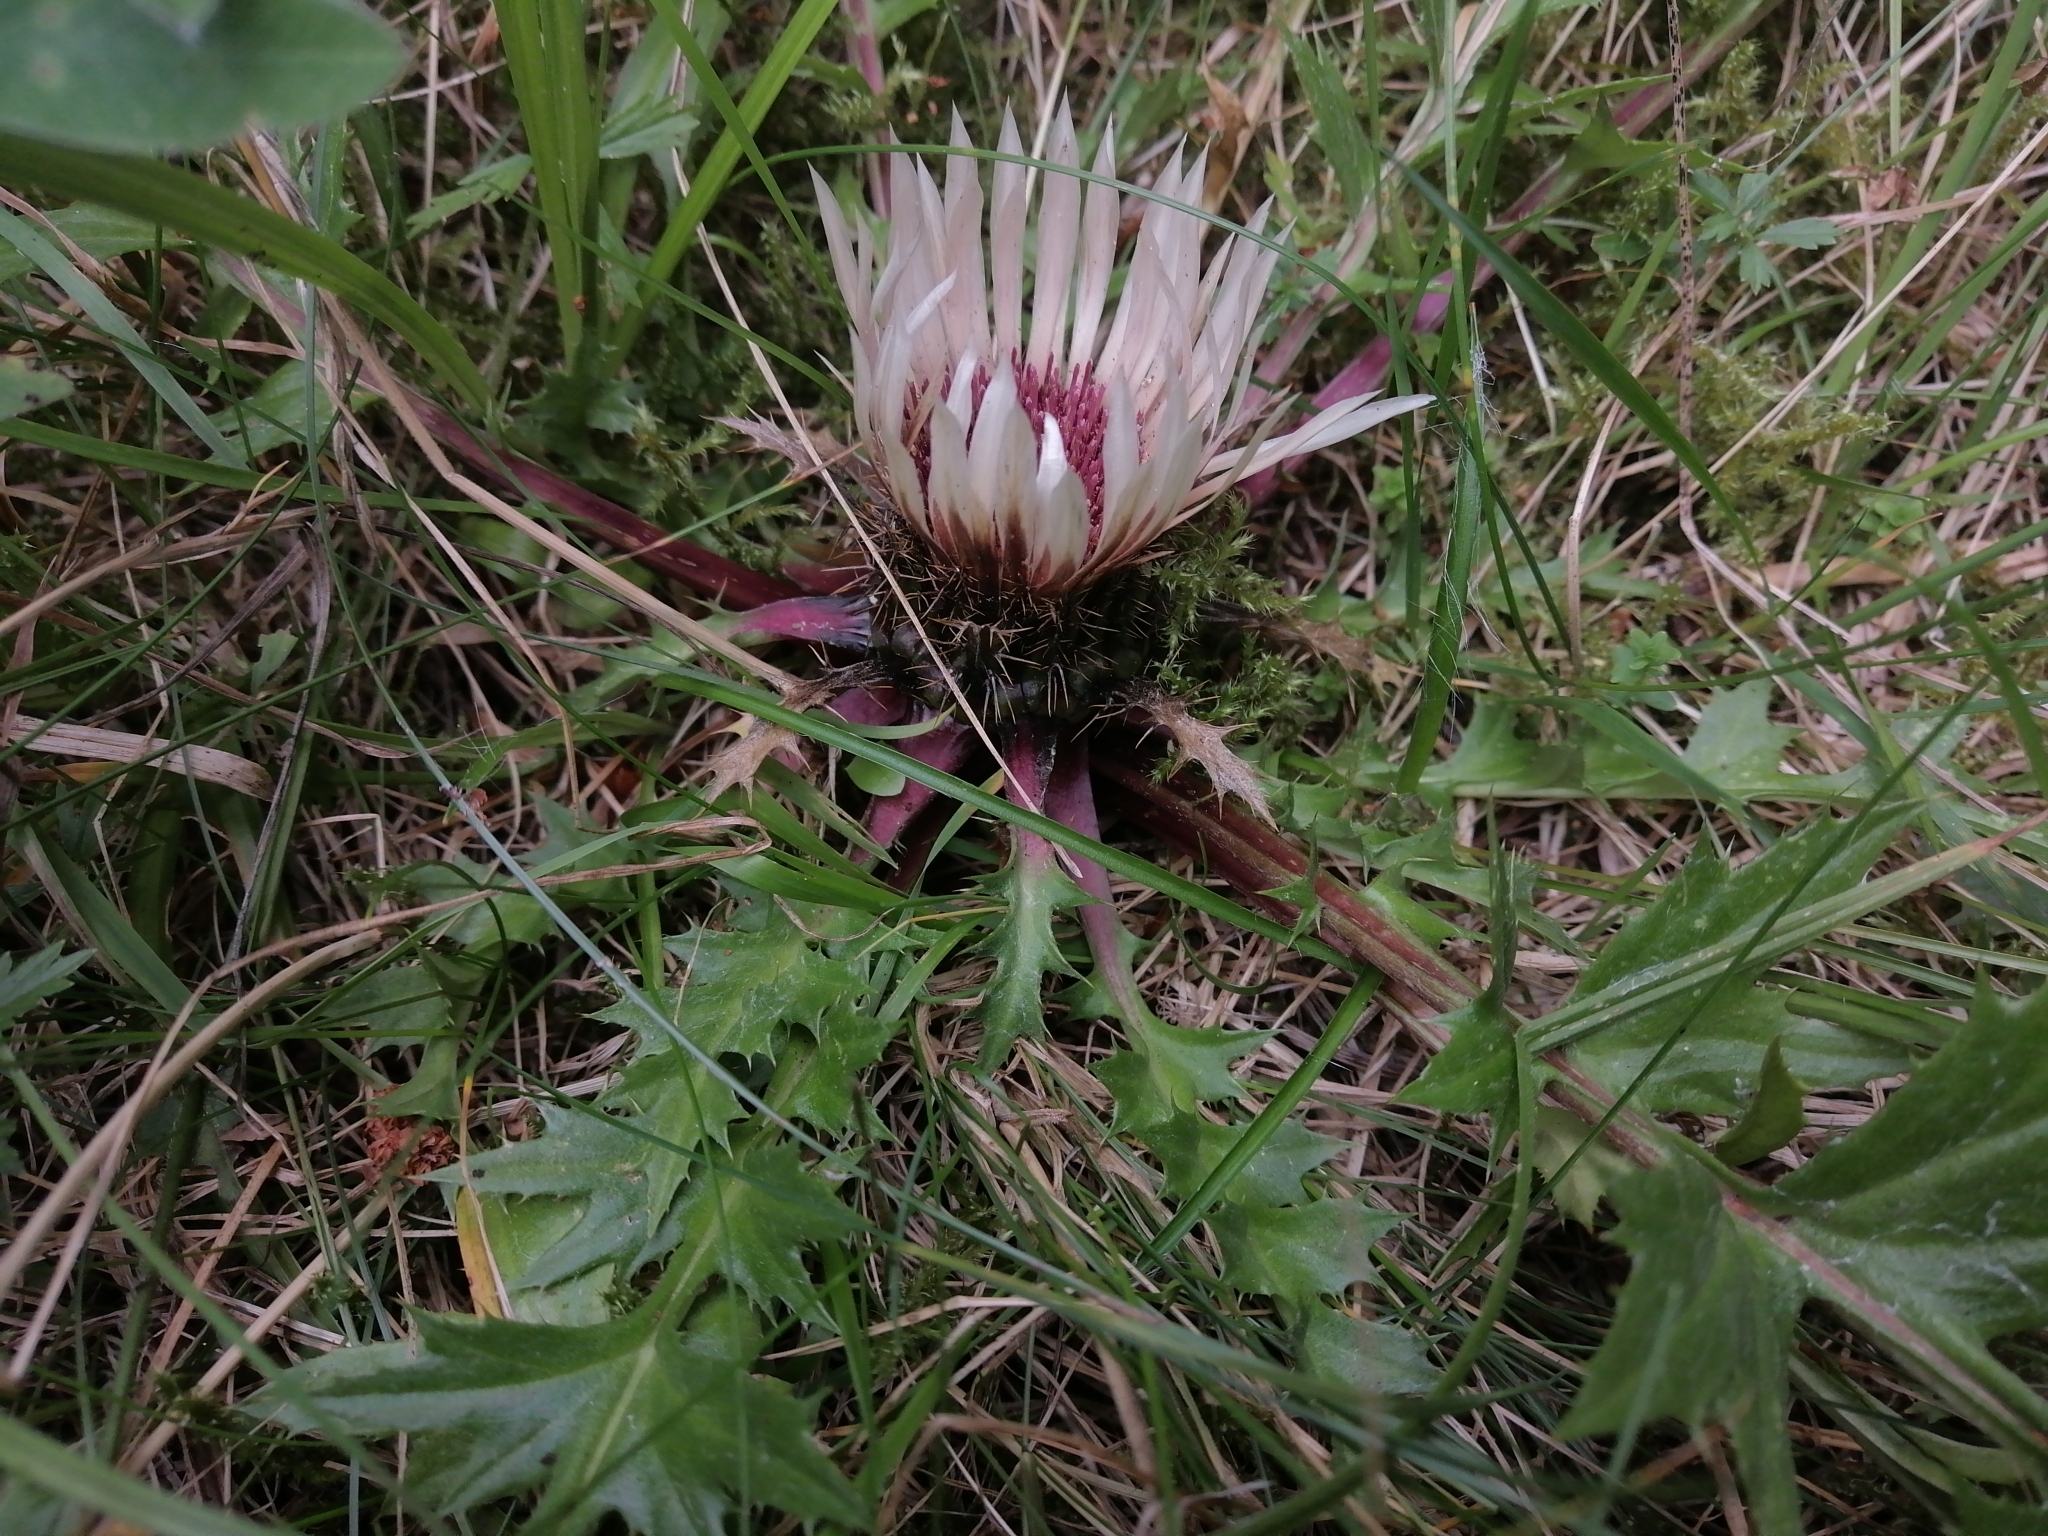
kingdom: Plantae
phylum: Tracheophyta
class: Magnoliopsida
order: Asterales
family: Asteraceae
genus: Carlina
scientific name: Carlina acaulis
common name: Stemless carline thistle
